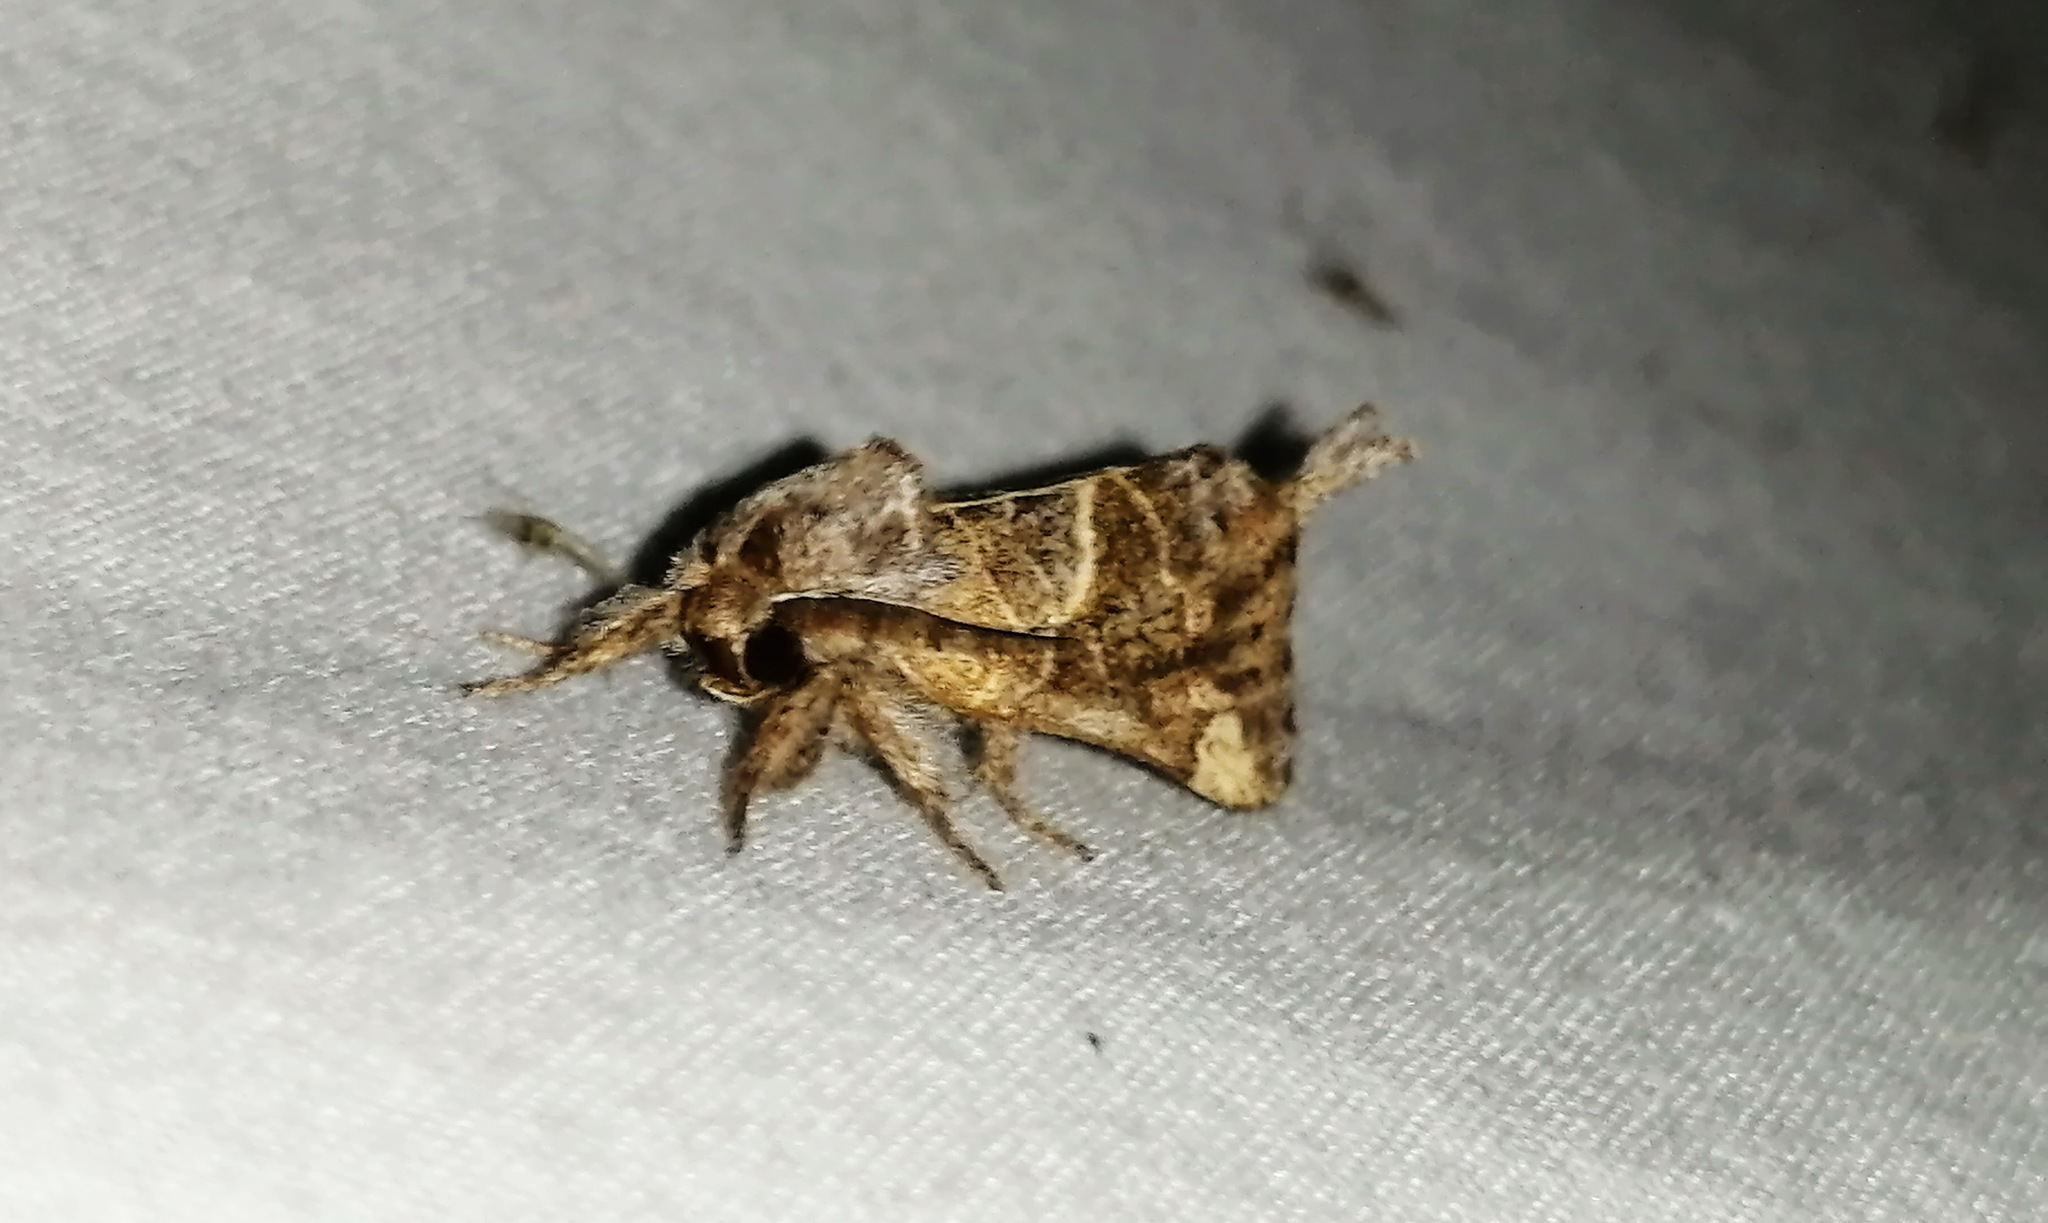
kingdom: Animalia
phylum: Arthropoda
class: Insecta
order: Lepidoptera
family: Notodontidae
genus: Clostera
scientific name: Clostera strigosa
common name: Striped chocolate-tip moth
